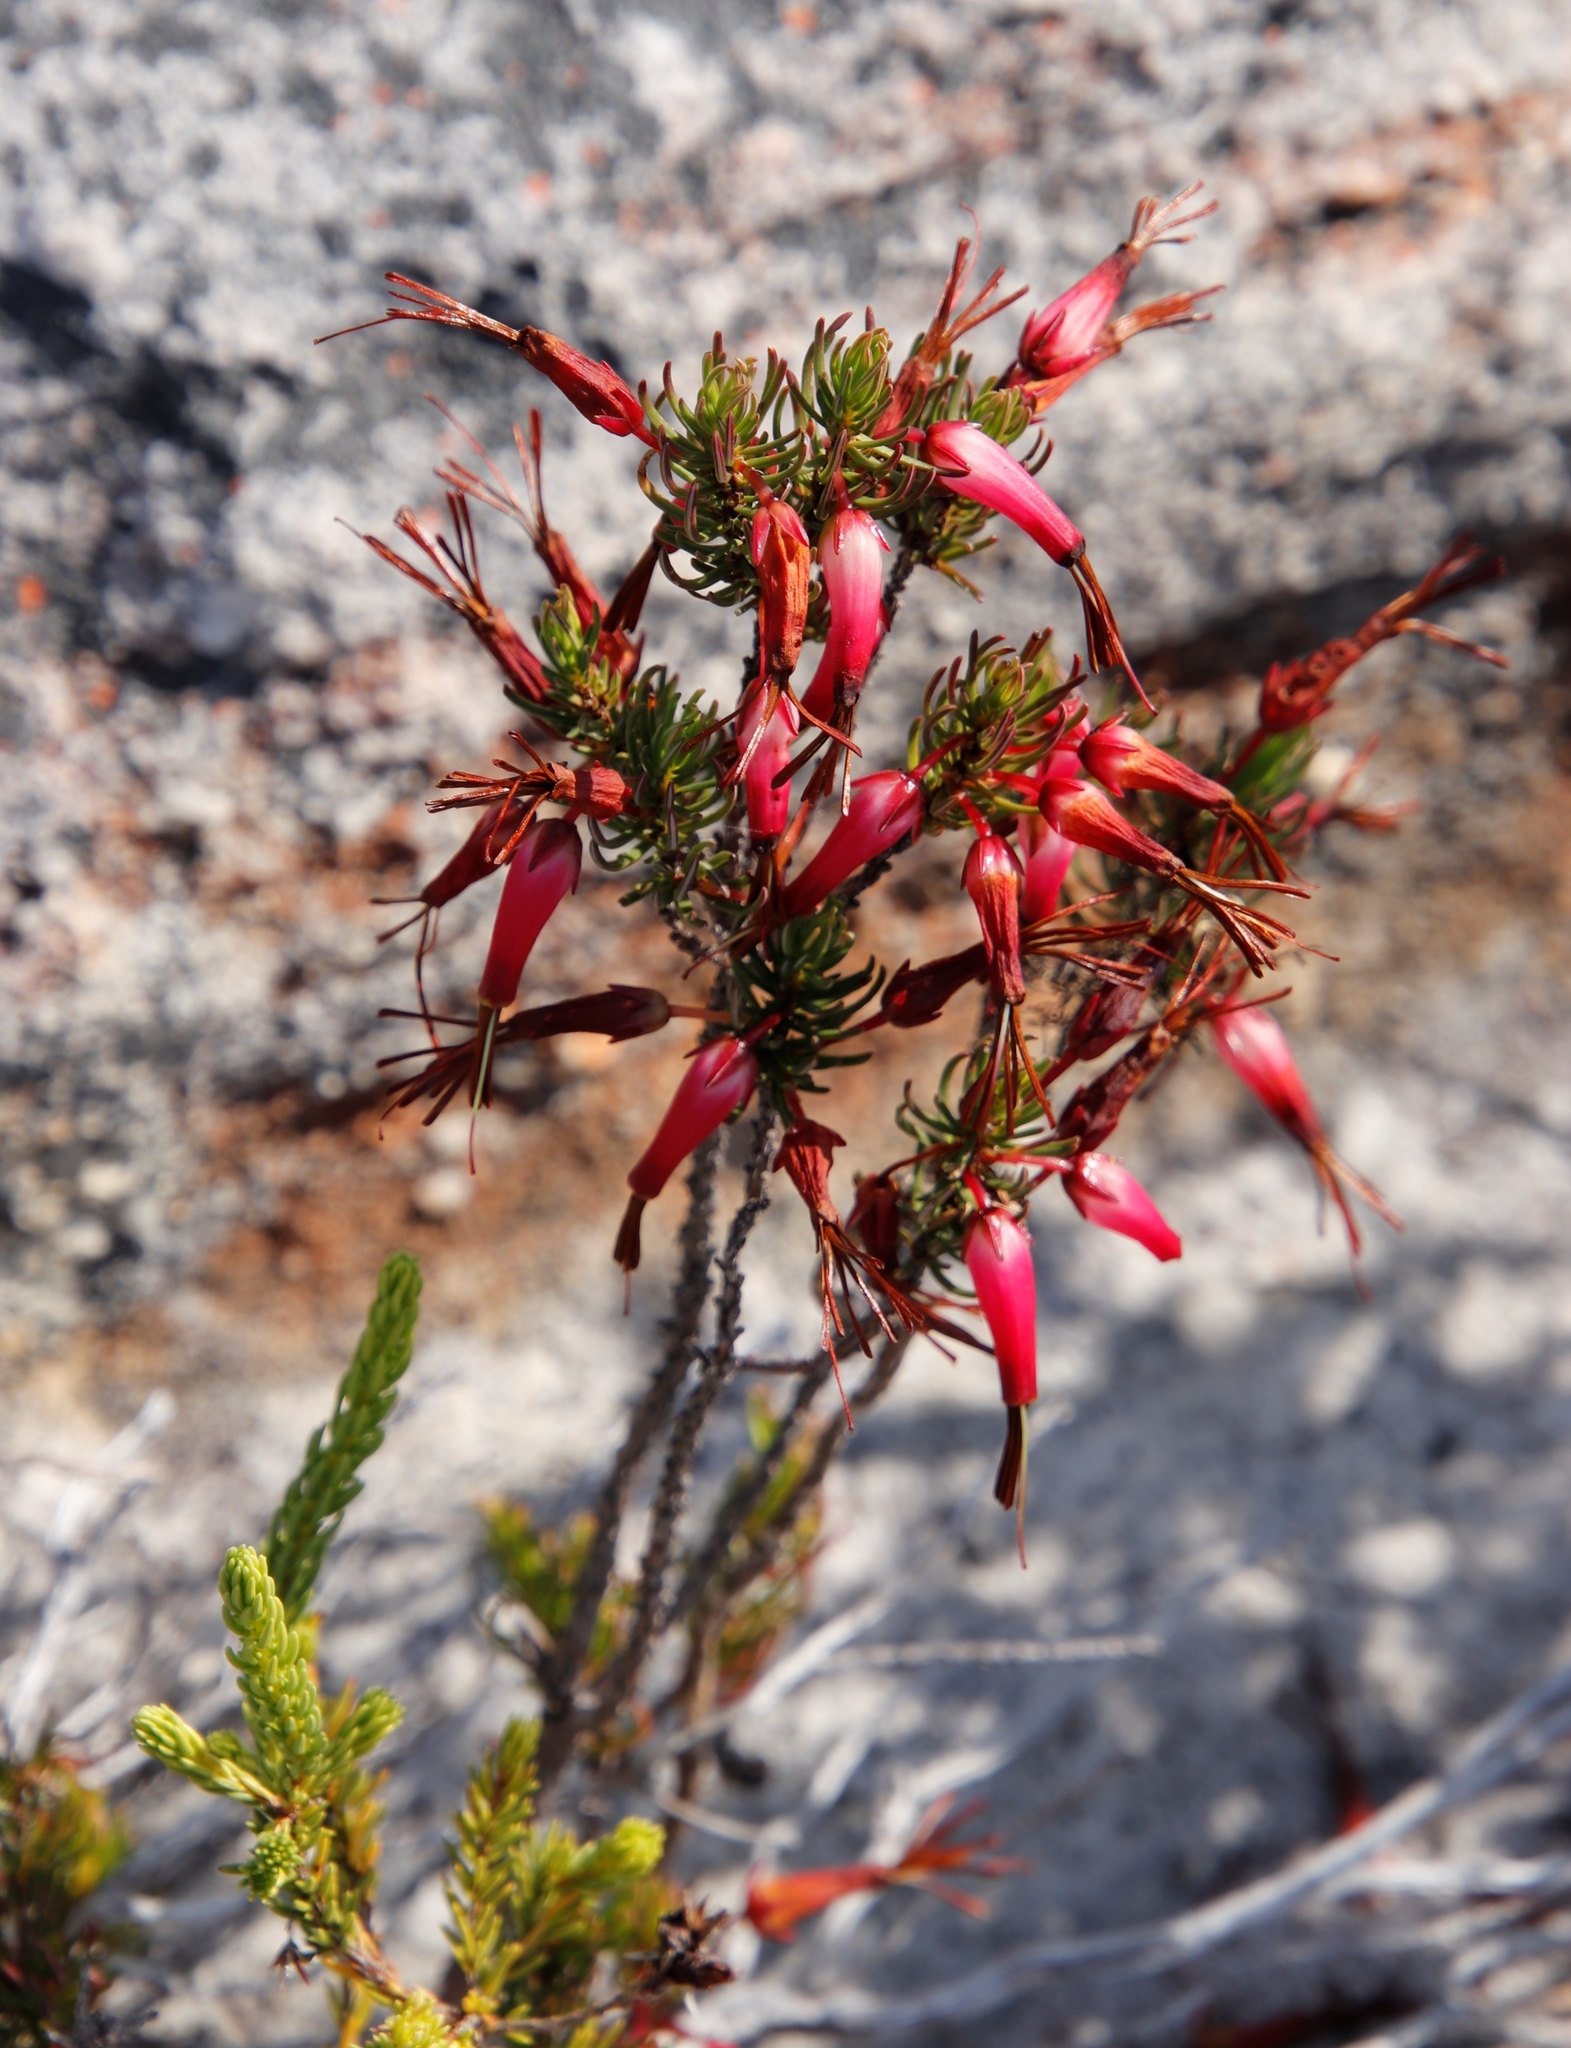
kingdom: Plantae
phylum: Tracheophyta
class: Magnoliopsida
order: Ericales
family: Ericaceae
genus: Erica
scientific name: Erica plukenetii
